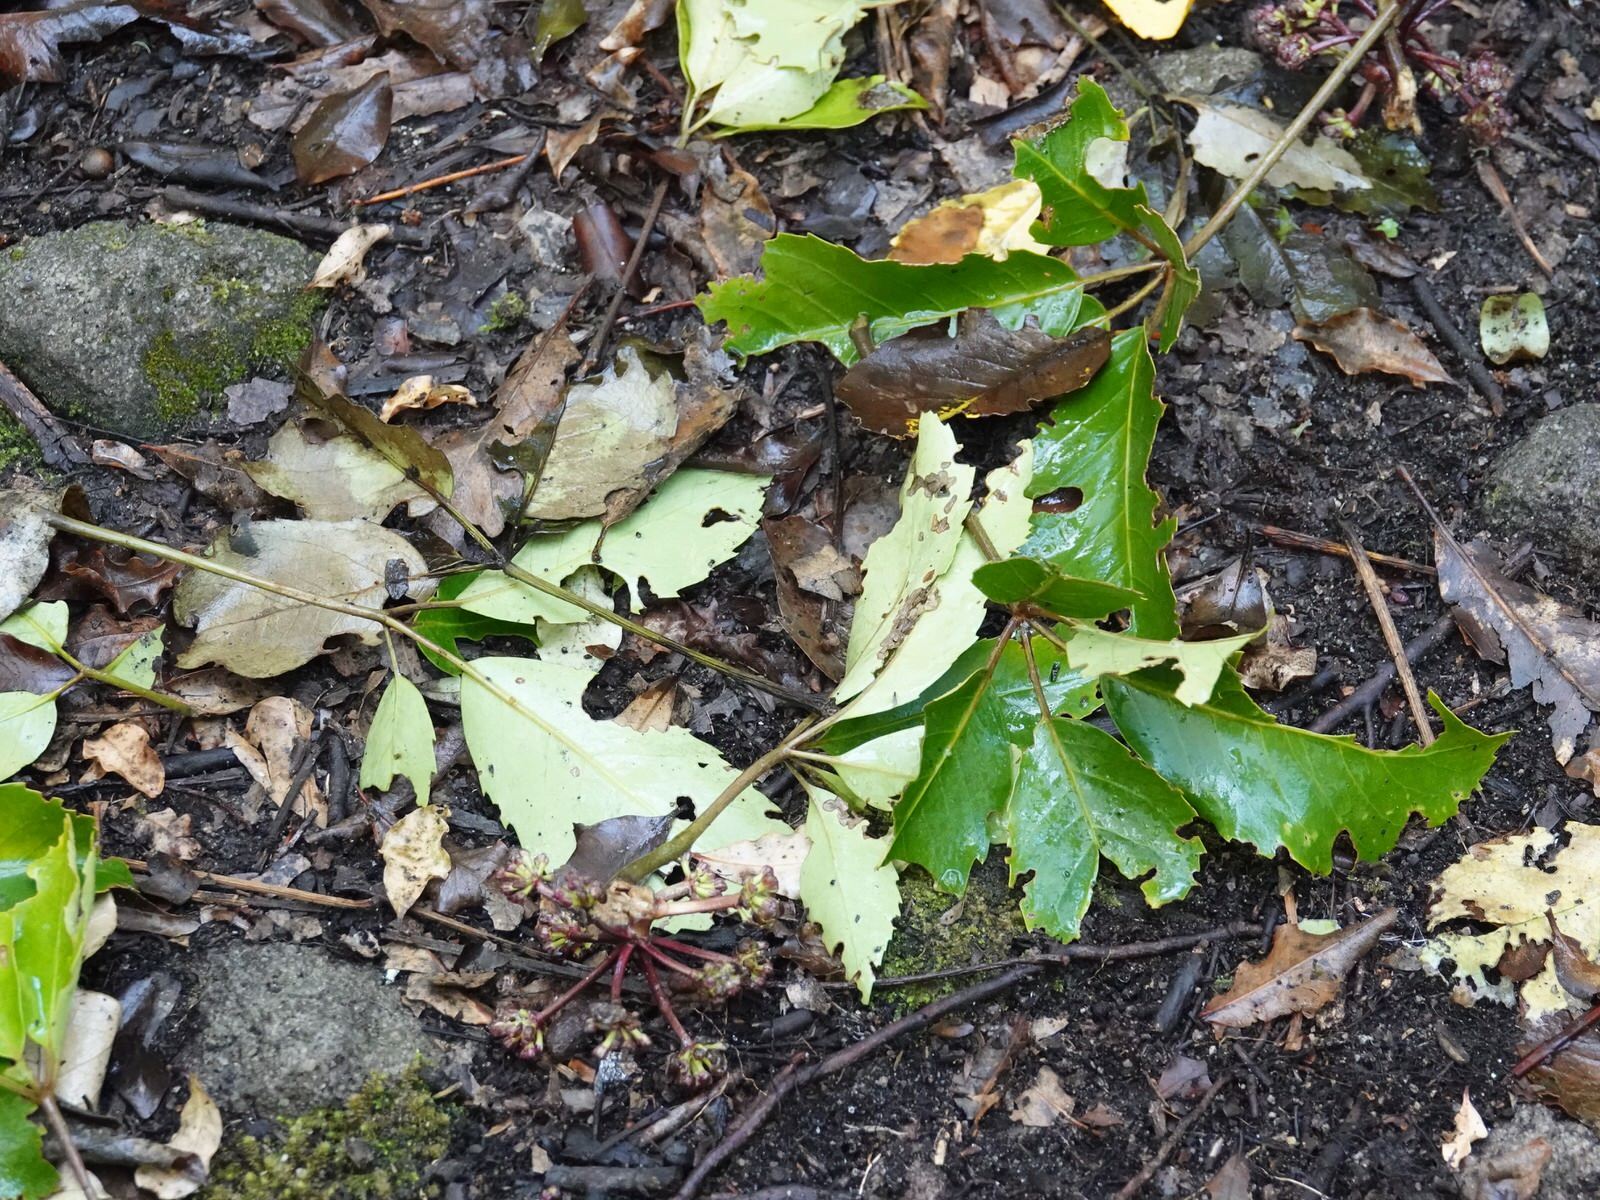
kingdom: Animalia
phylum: Chordata
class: Mammalia
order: Diprotodontia
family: Phalangeridae
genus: Trichosurus
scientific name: Trichosurus vulpecula
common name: Common brushtail
